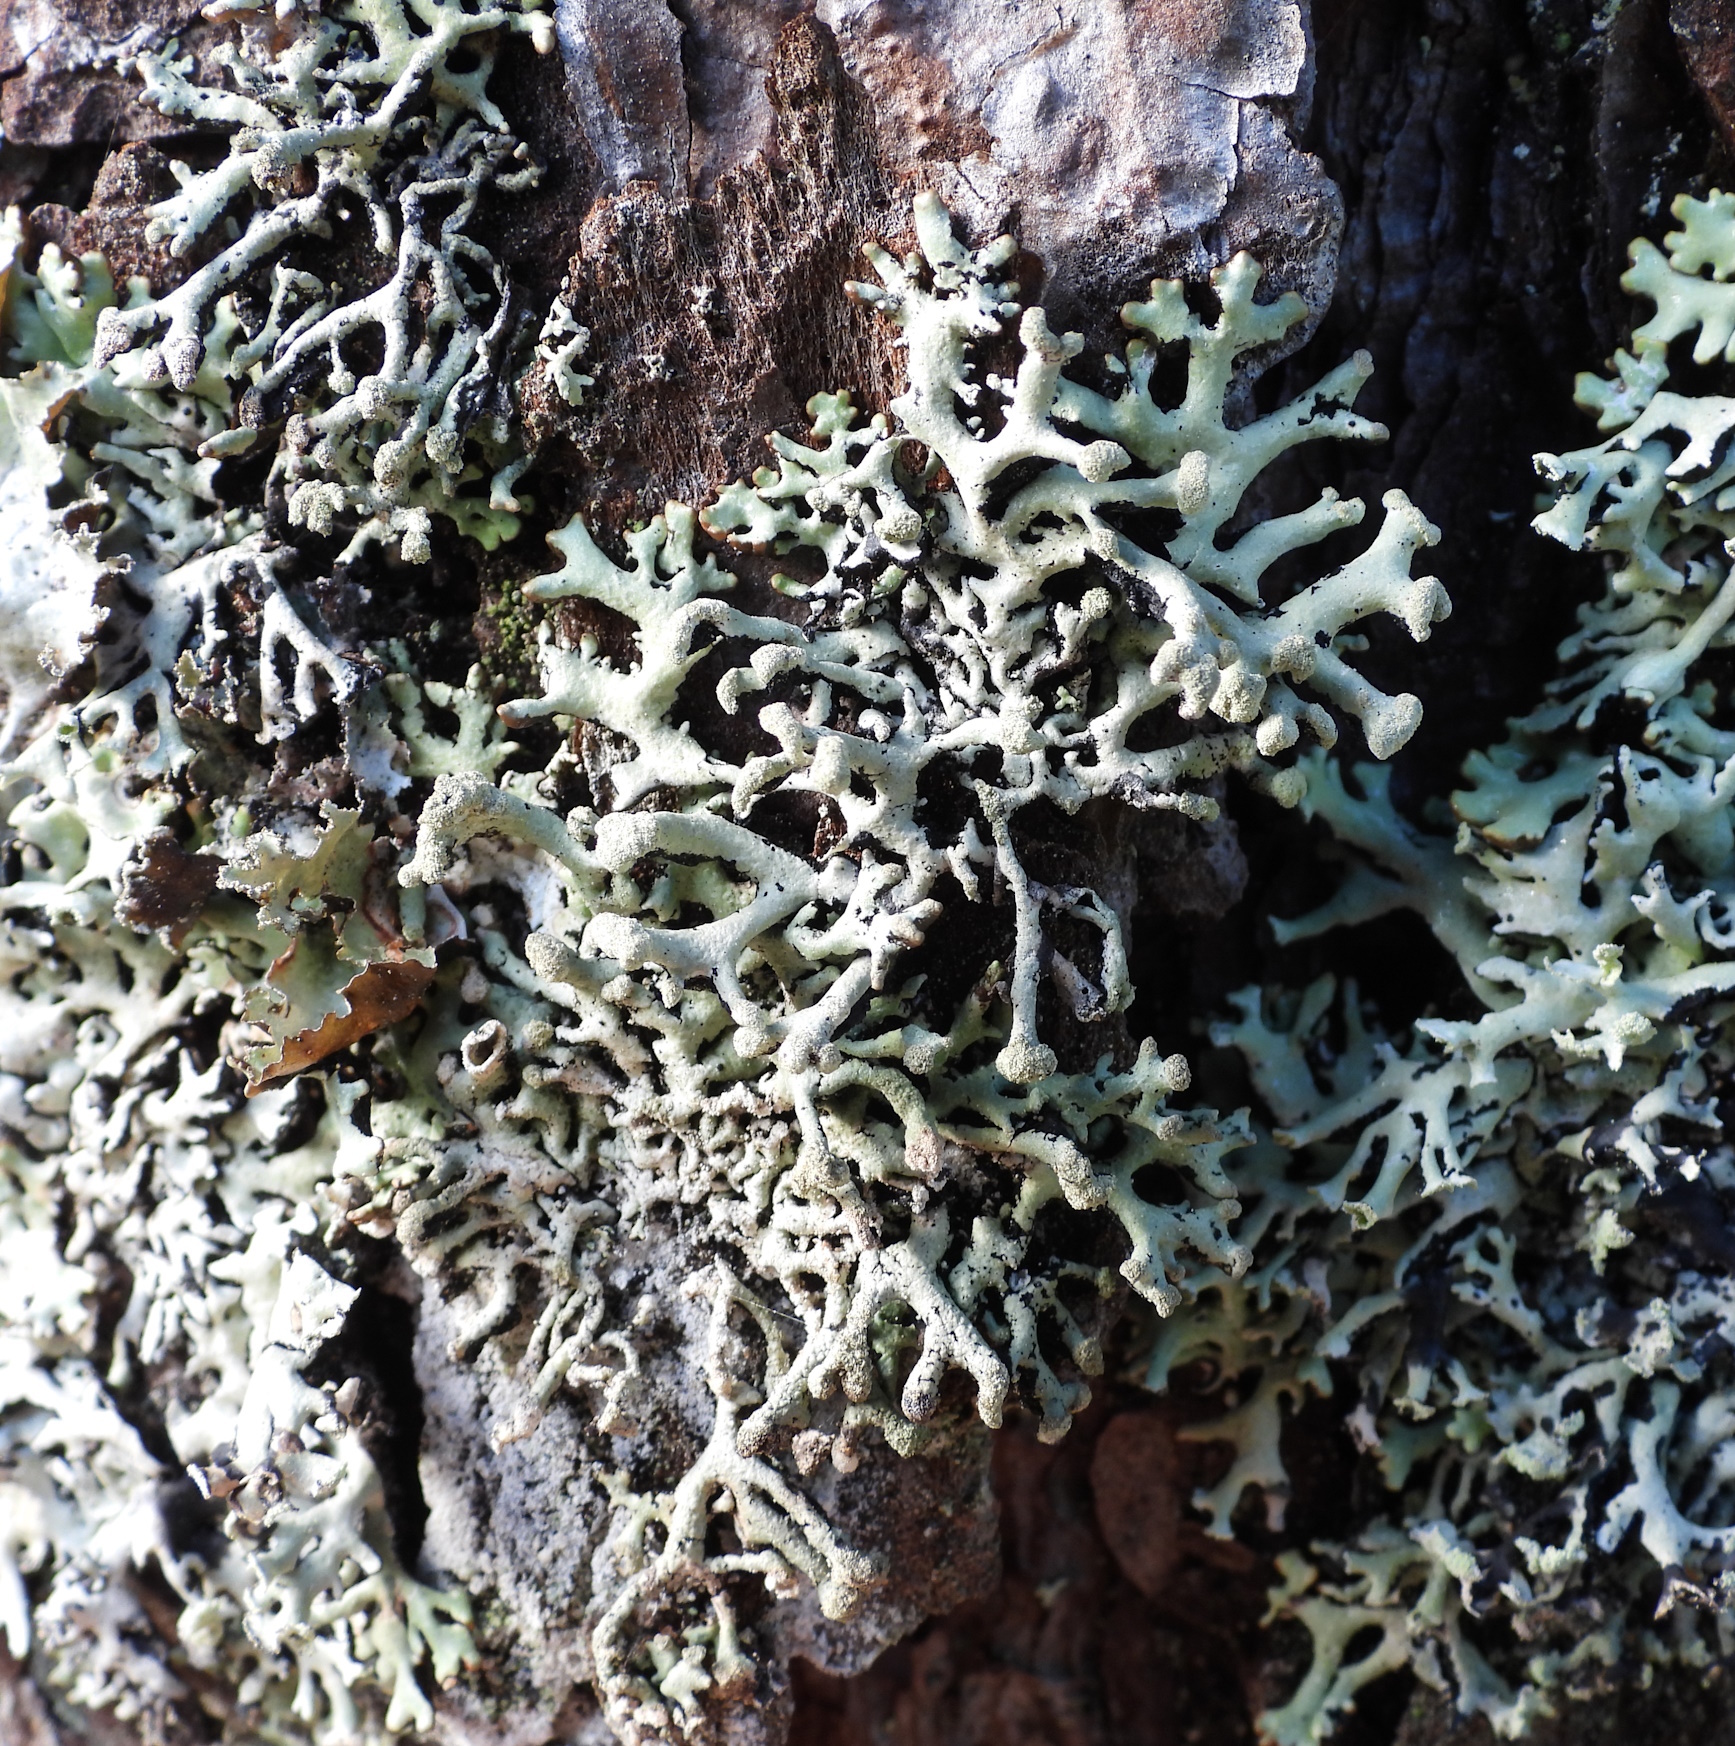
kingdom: Fungi
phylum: Ascomycota
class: Lecanoromycetes
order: Lecanorales
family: Parmeliaceae
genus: Hypogymnia
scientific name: Hypogymnia tubulosa
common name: Powder-headed tube lichen
